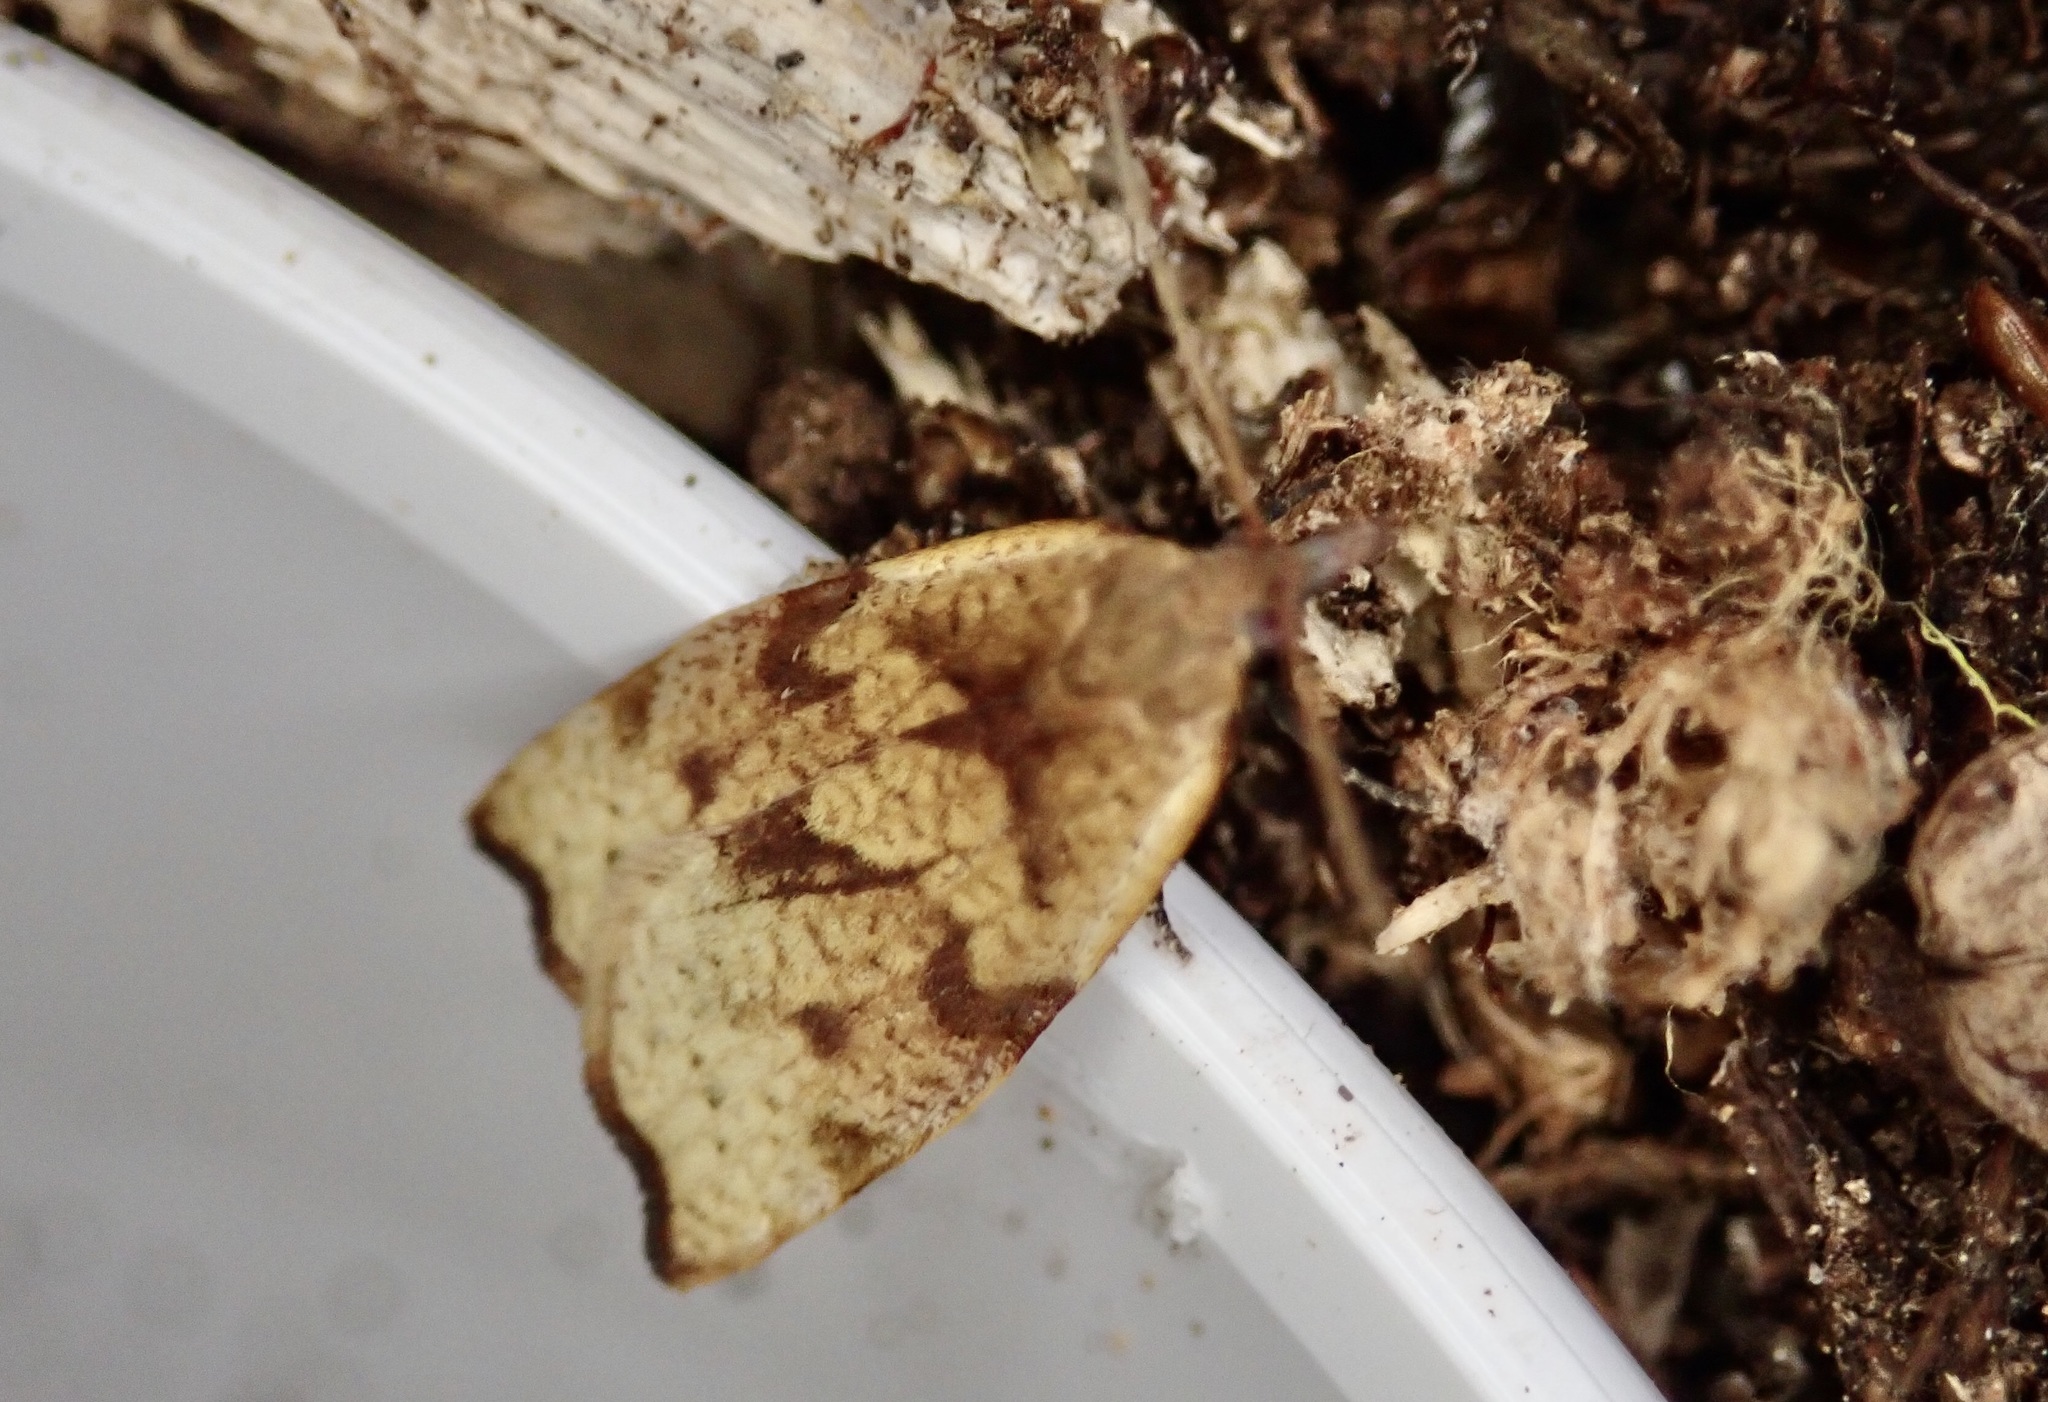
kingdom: Animalia
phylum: Arthropoda
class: Insecta
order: Lepidoptera
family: Tortricidae
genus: Apoctena
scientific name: Apoctena flavescens
